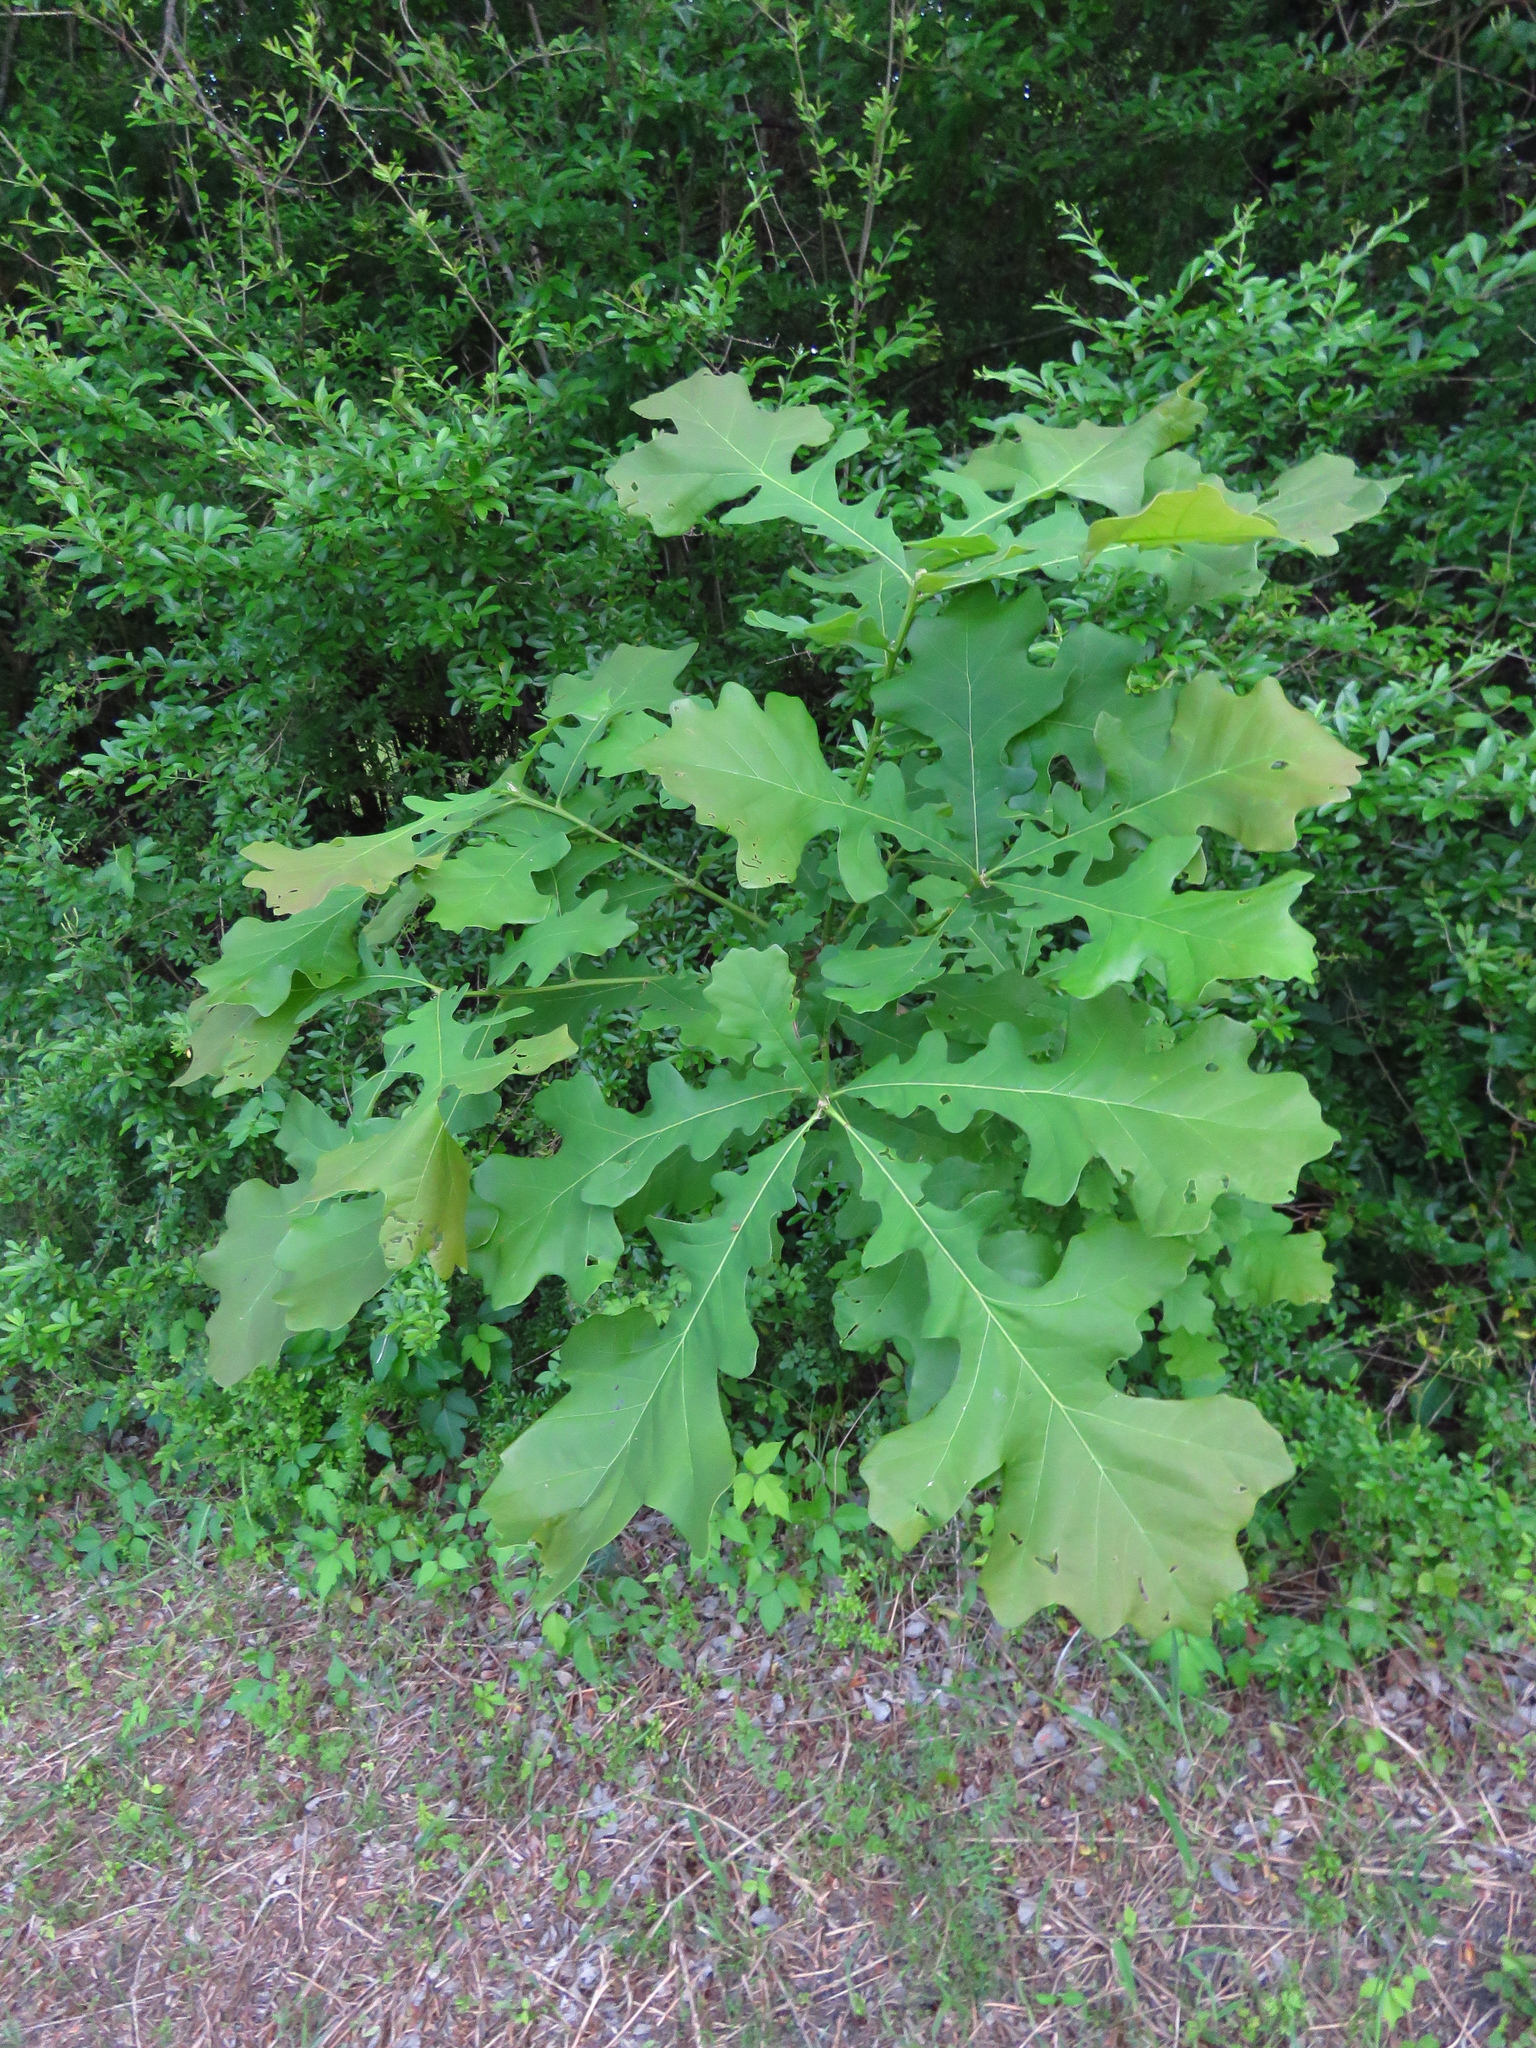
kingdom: Plantae
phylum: Tracheophyta
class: Magnoliopsida
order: Fagales
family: Fagaceae
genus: Quercus
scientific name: Quercus macrocarpa
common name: Bur oak
